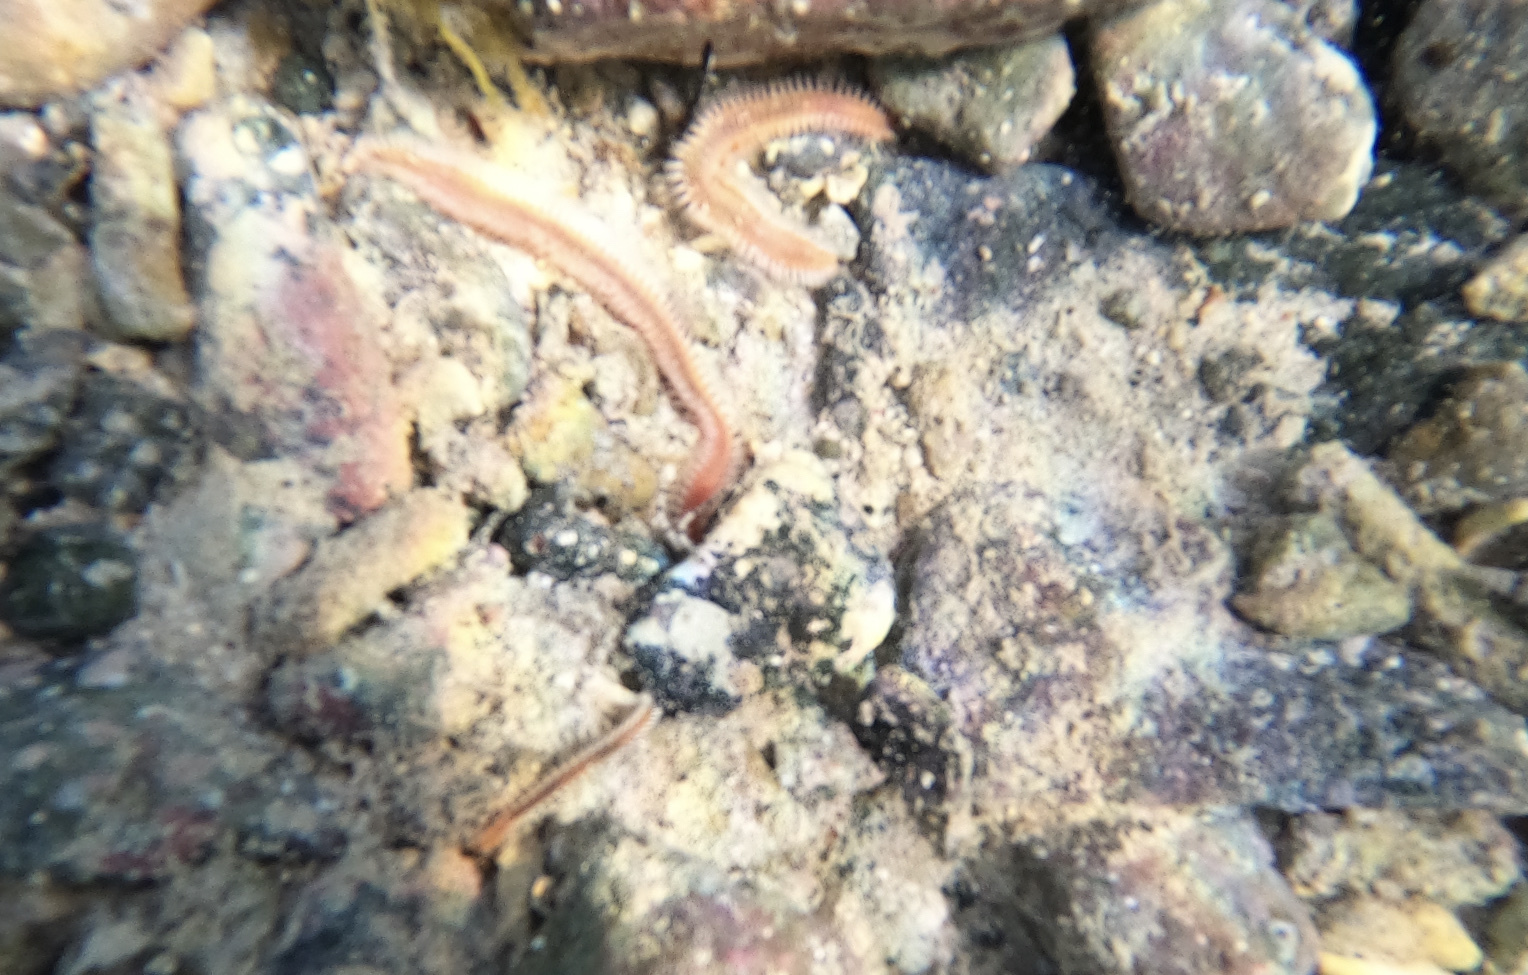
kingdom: Animalia
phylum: Annelida
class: Polychaeta
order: Amphinomida
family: Amphinomidae
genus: Eurythoe
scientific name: Eurythoe complanata
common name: Fireworm
